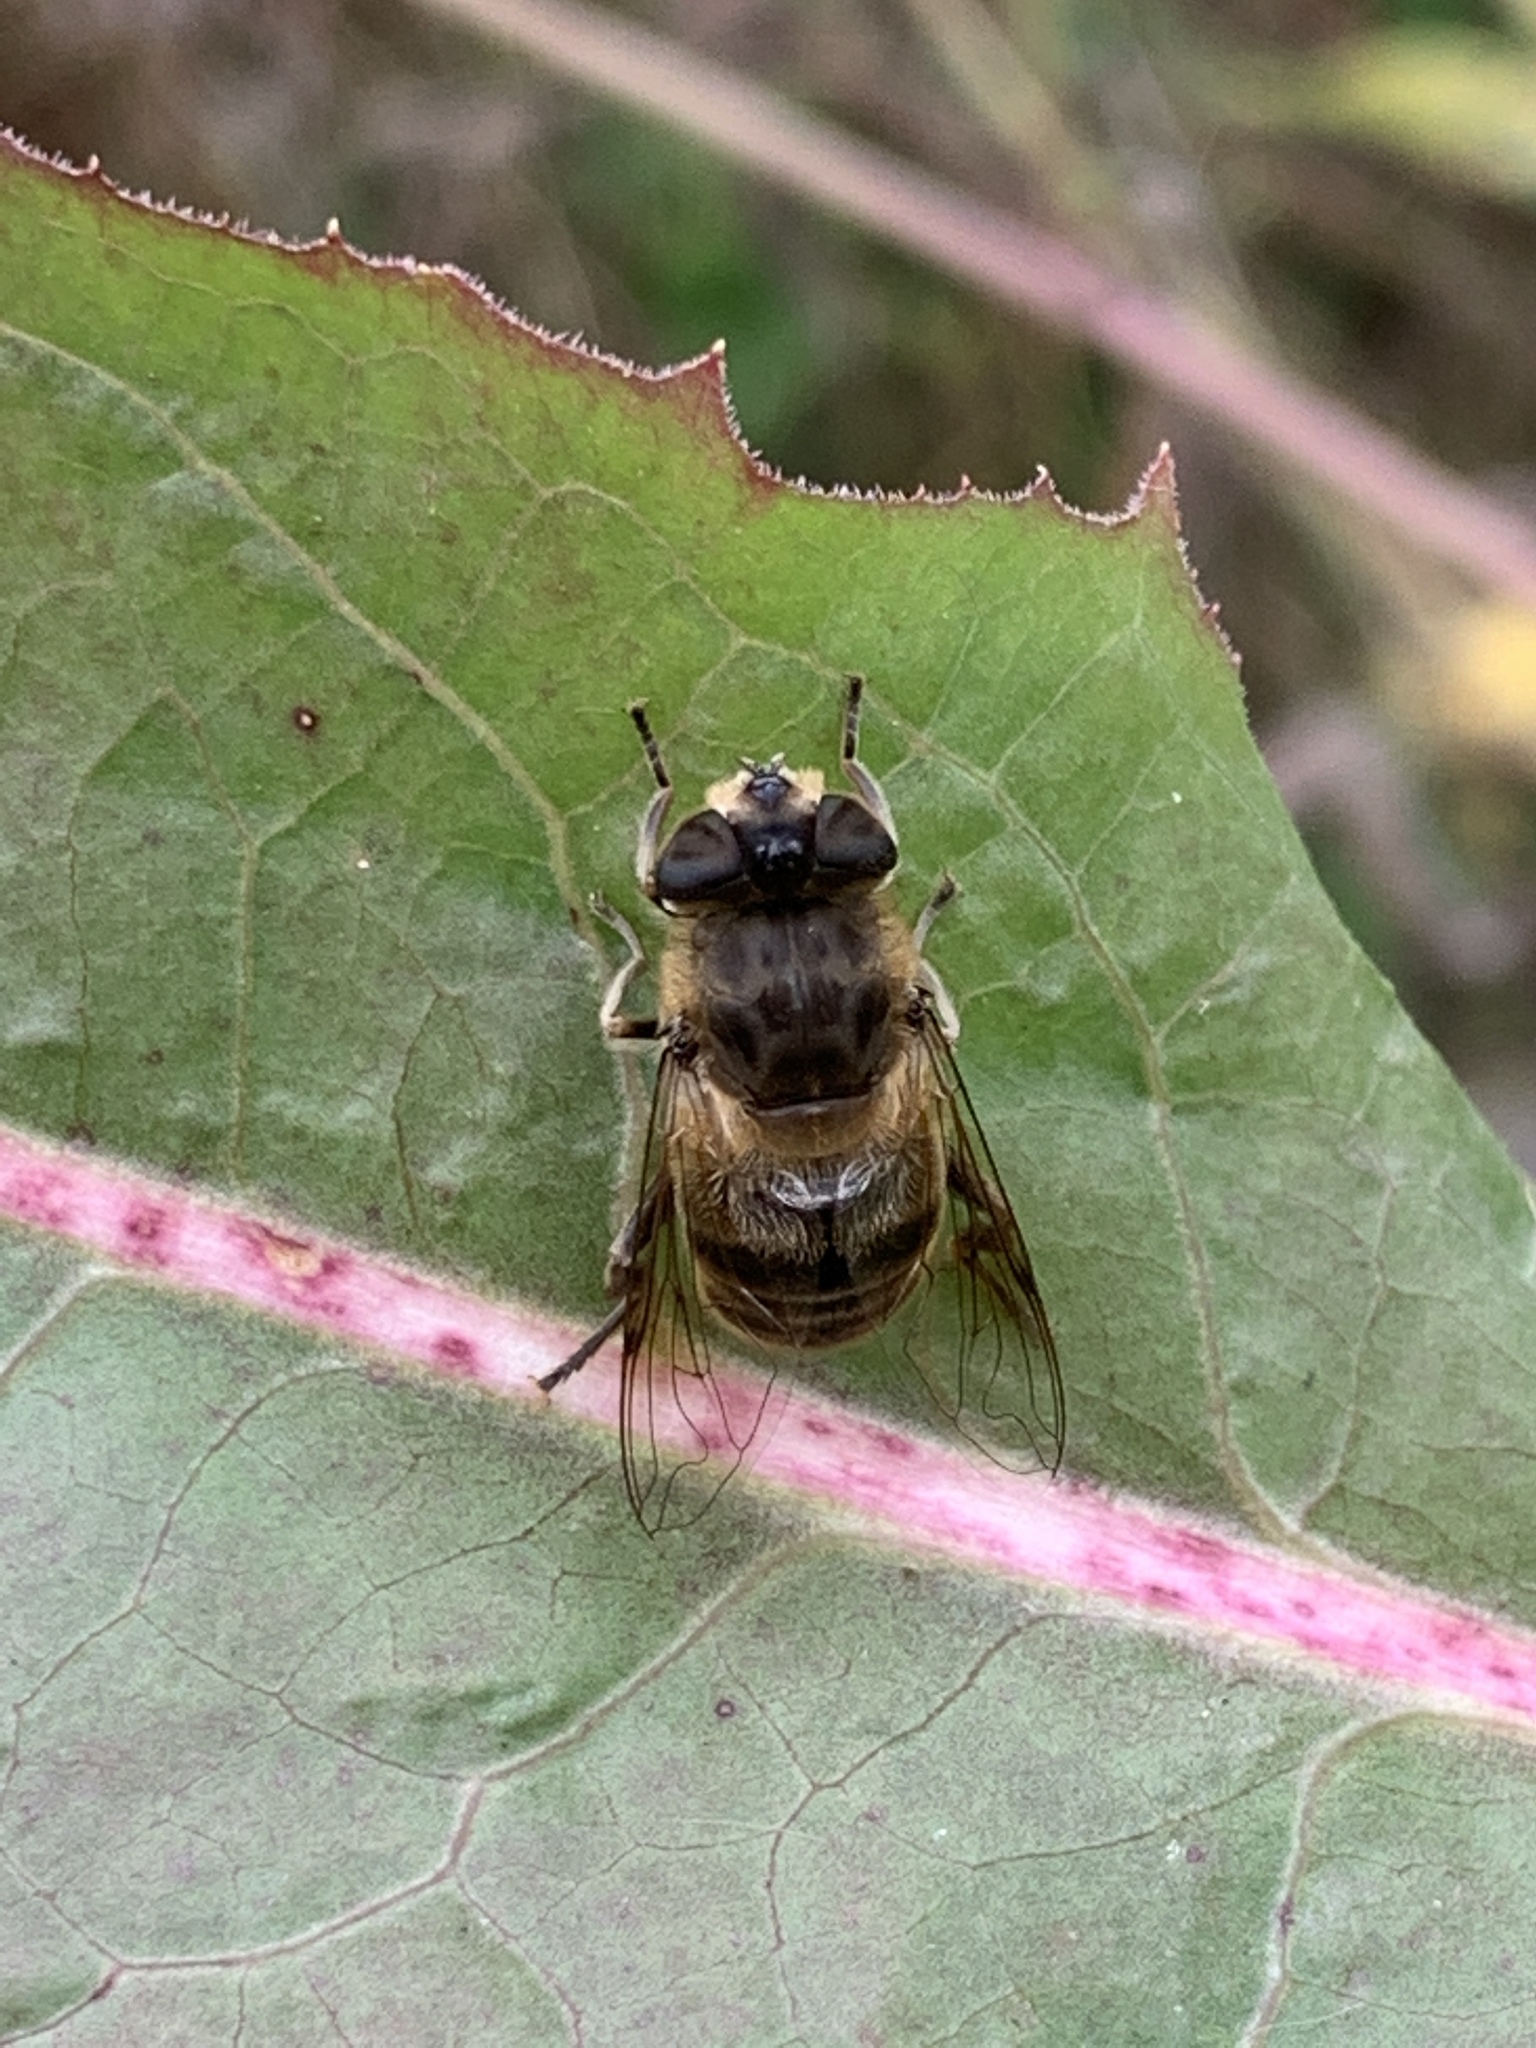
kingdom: Animalia
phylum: Arthropoda
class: Insecta
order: Diptera
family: Syrphidae
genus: Eristalis
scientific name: Eristalis tenax
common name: Drone fly
